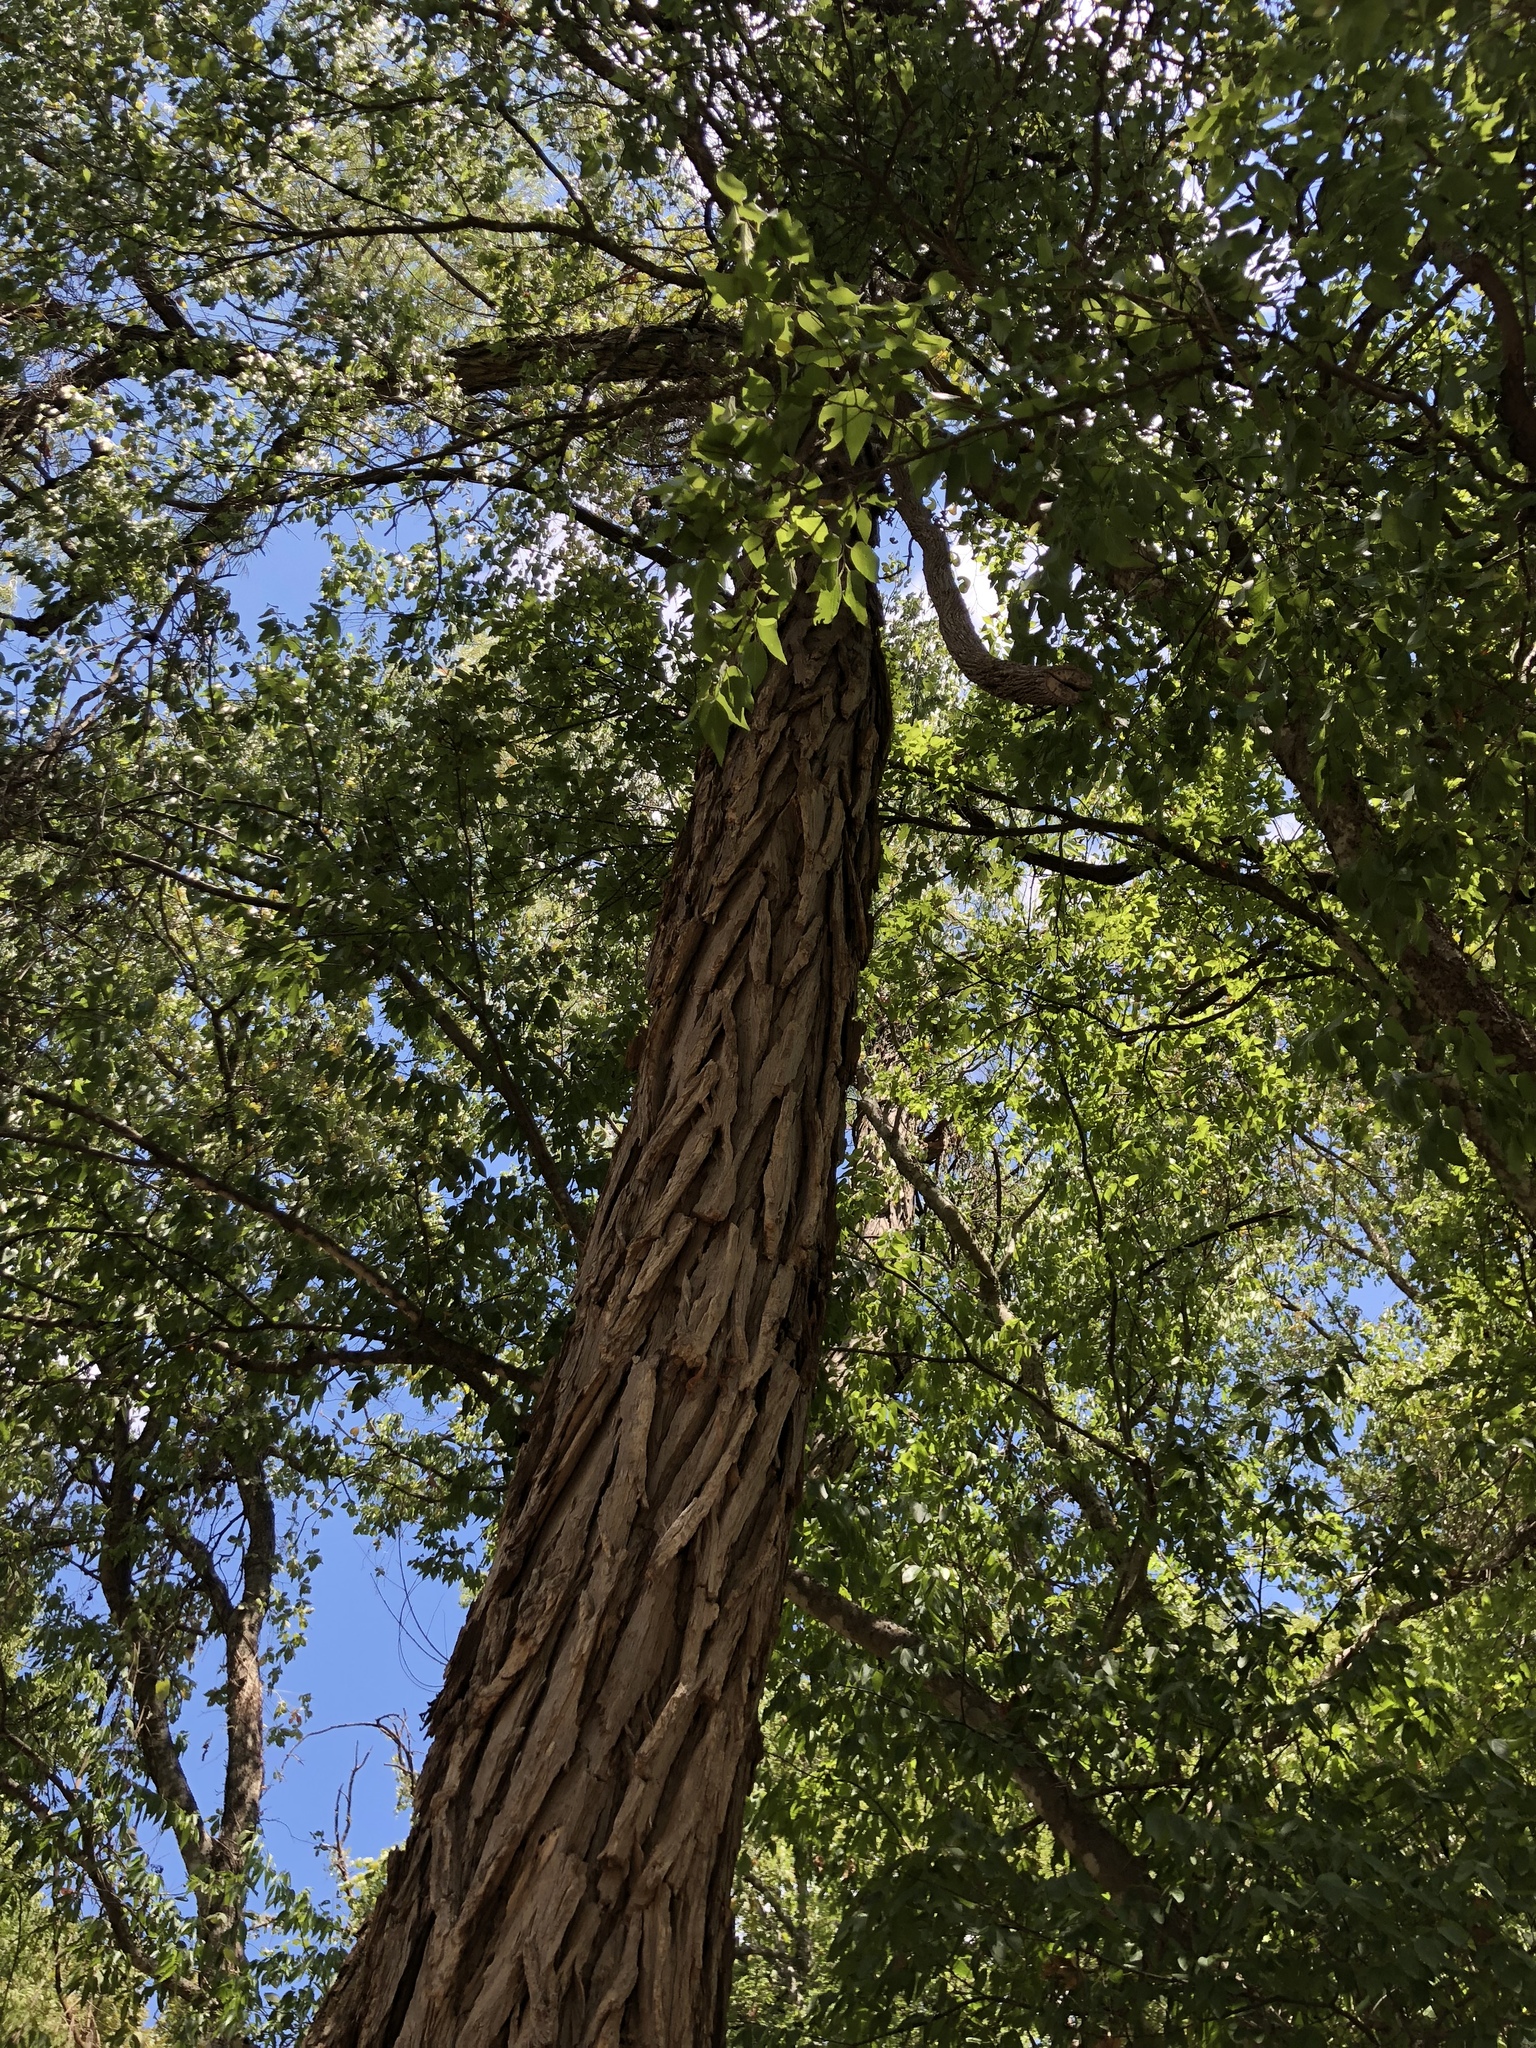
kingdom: Plantae
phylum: Tracheophyta
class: Magnoliopsida
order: Malpighiales
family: Salicaceae
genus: Salix
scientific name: Salix nigra
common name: Black willow
